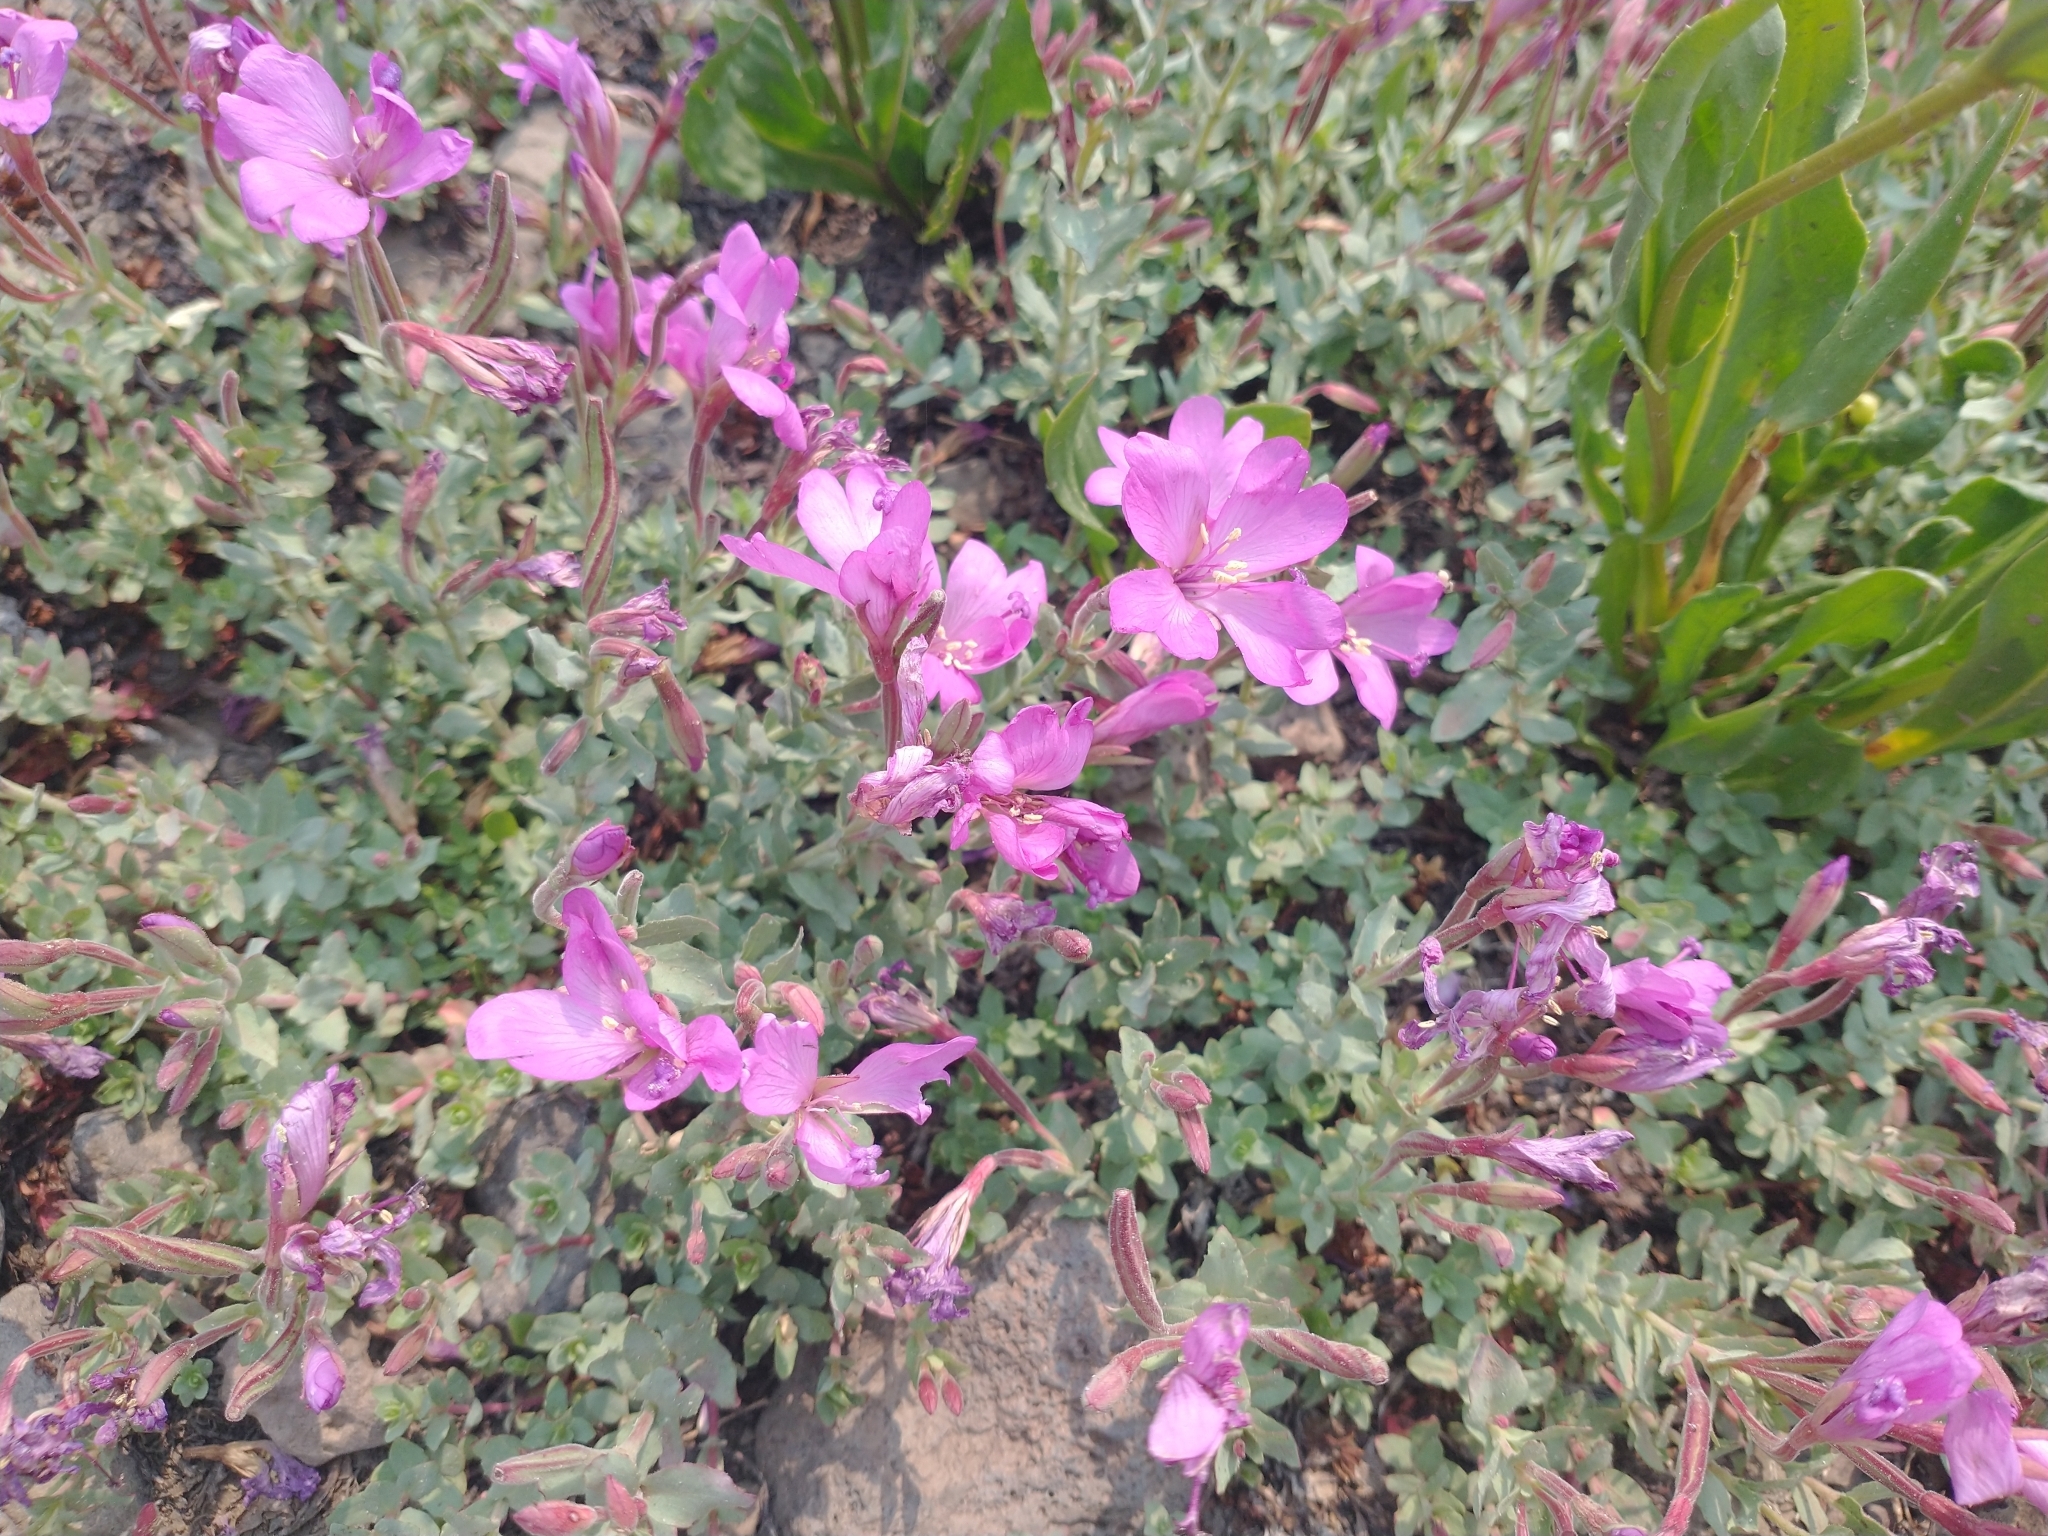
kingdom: Plantae
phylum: Tracheophyta
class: Magnoliopsida
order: Myrtales
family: Onagraceae
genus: Epilobium
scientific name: Epilobium obcordatum
